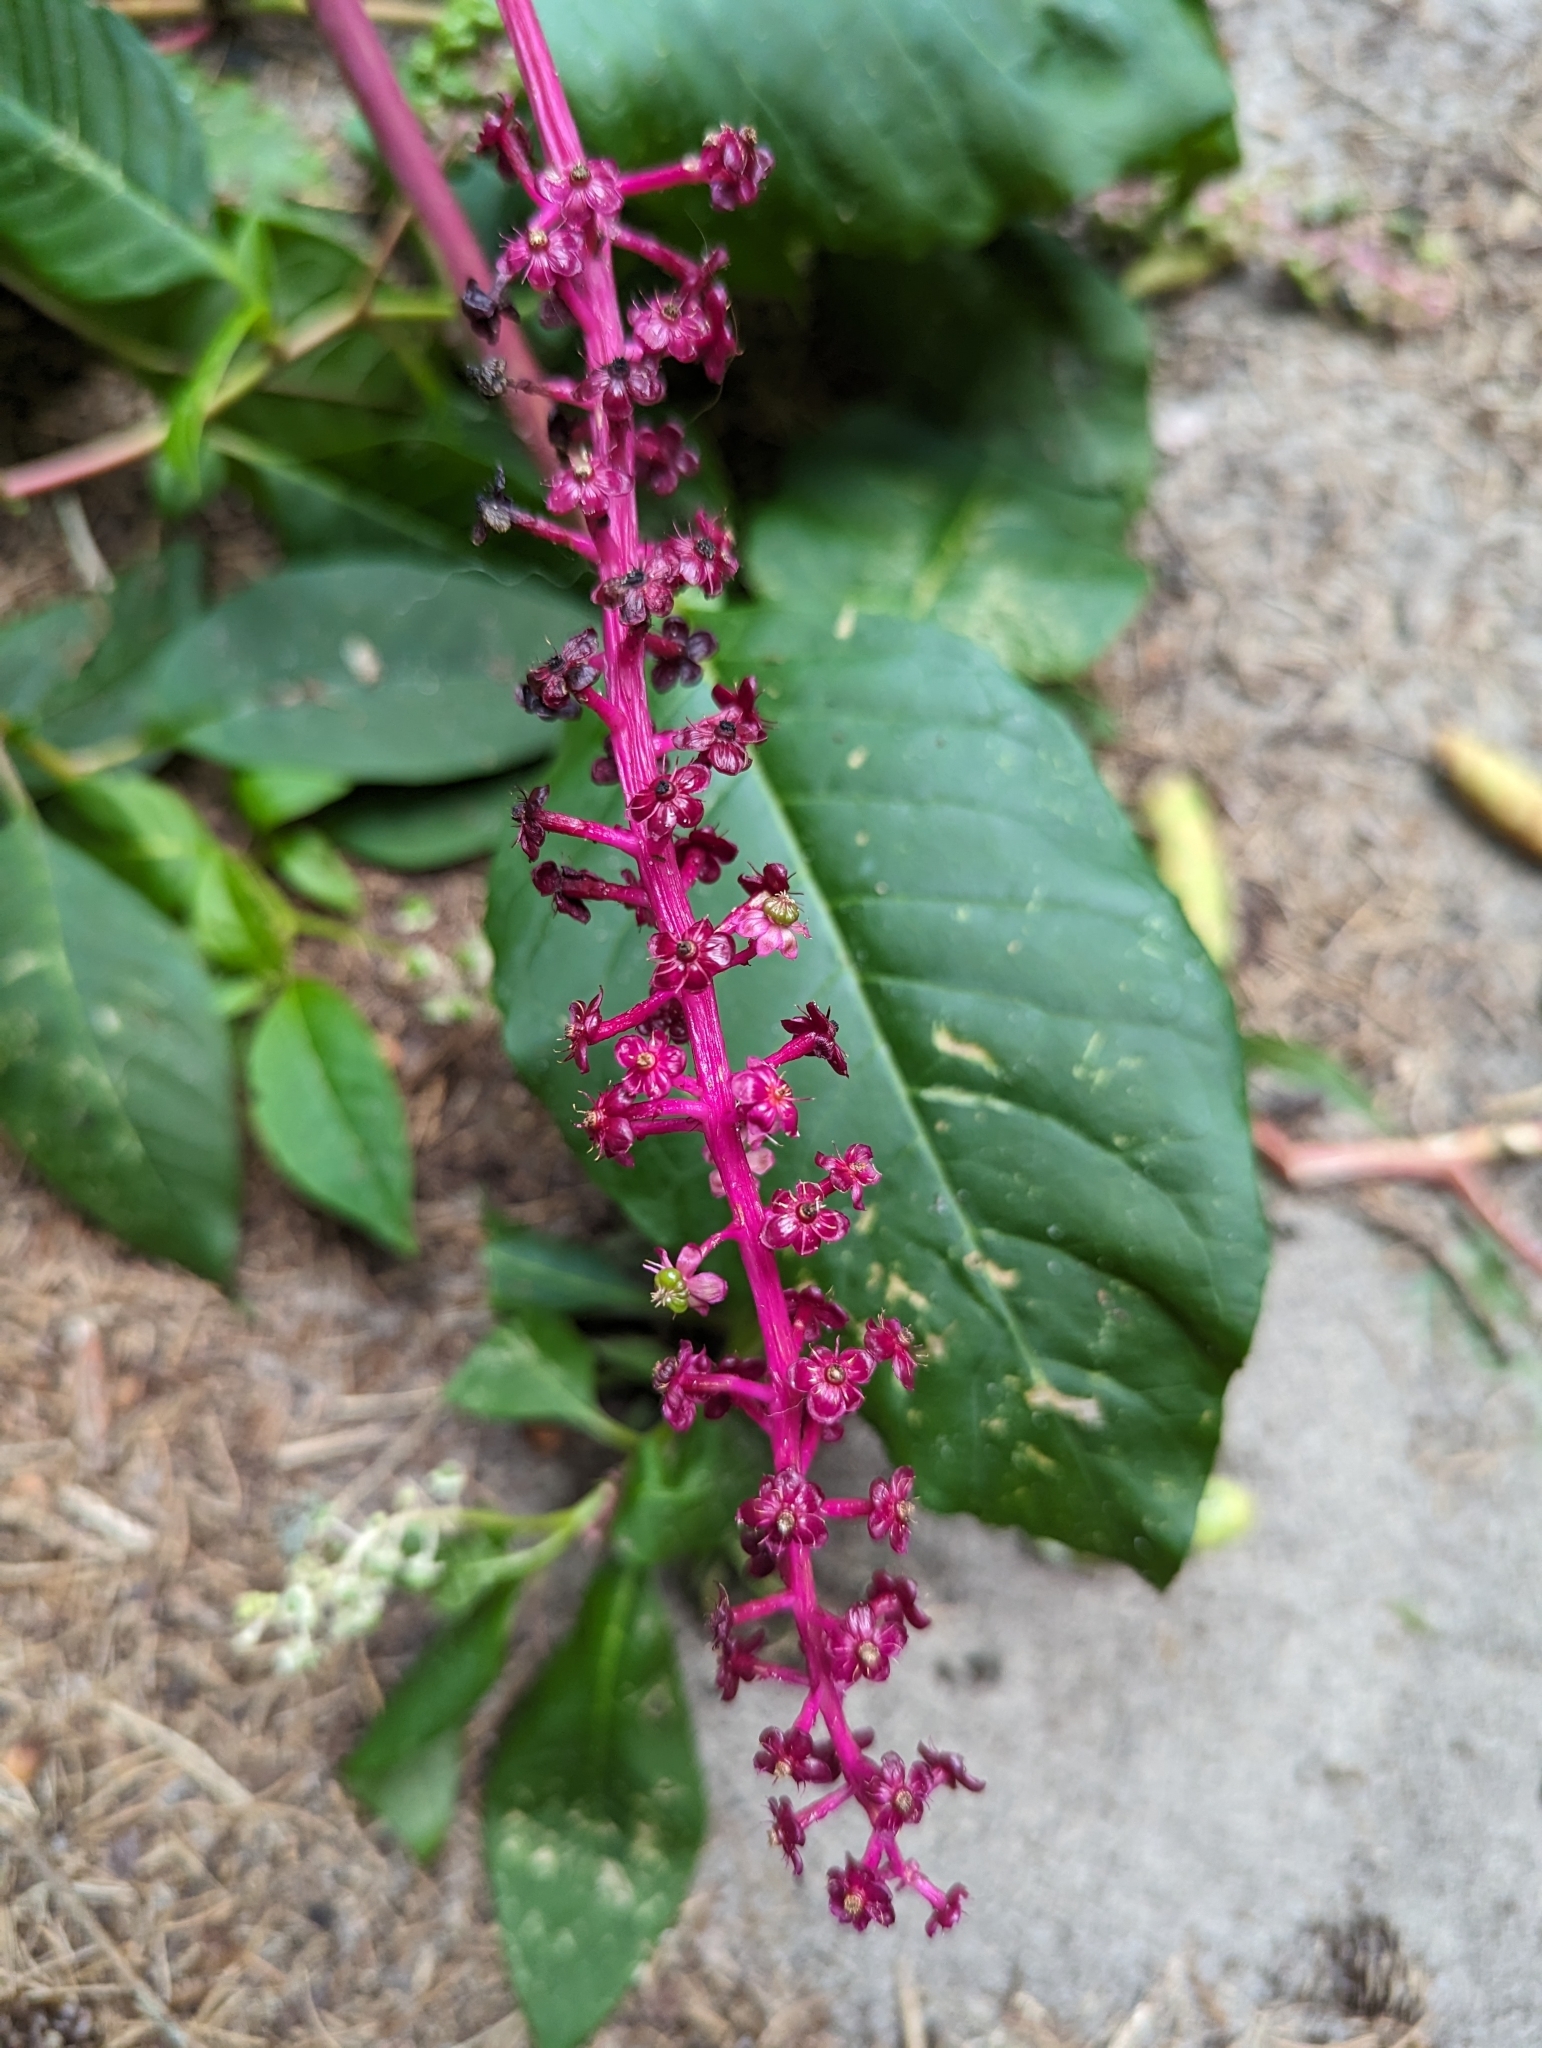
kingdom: Plantae
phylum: Tracheophyta
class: Magnoliopsida
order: Caryophyllales
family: Phytolaccaceae
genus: Phytolacca
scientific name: Phytolacca americana
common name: American pokeweed
